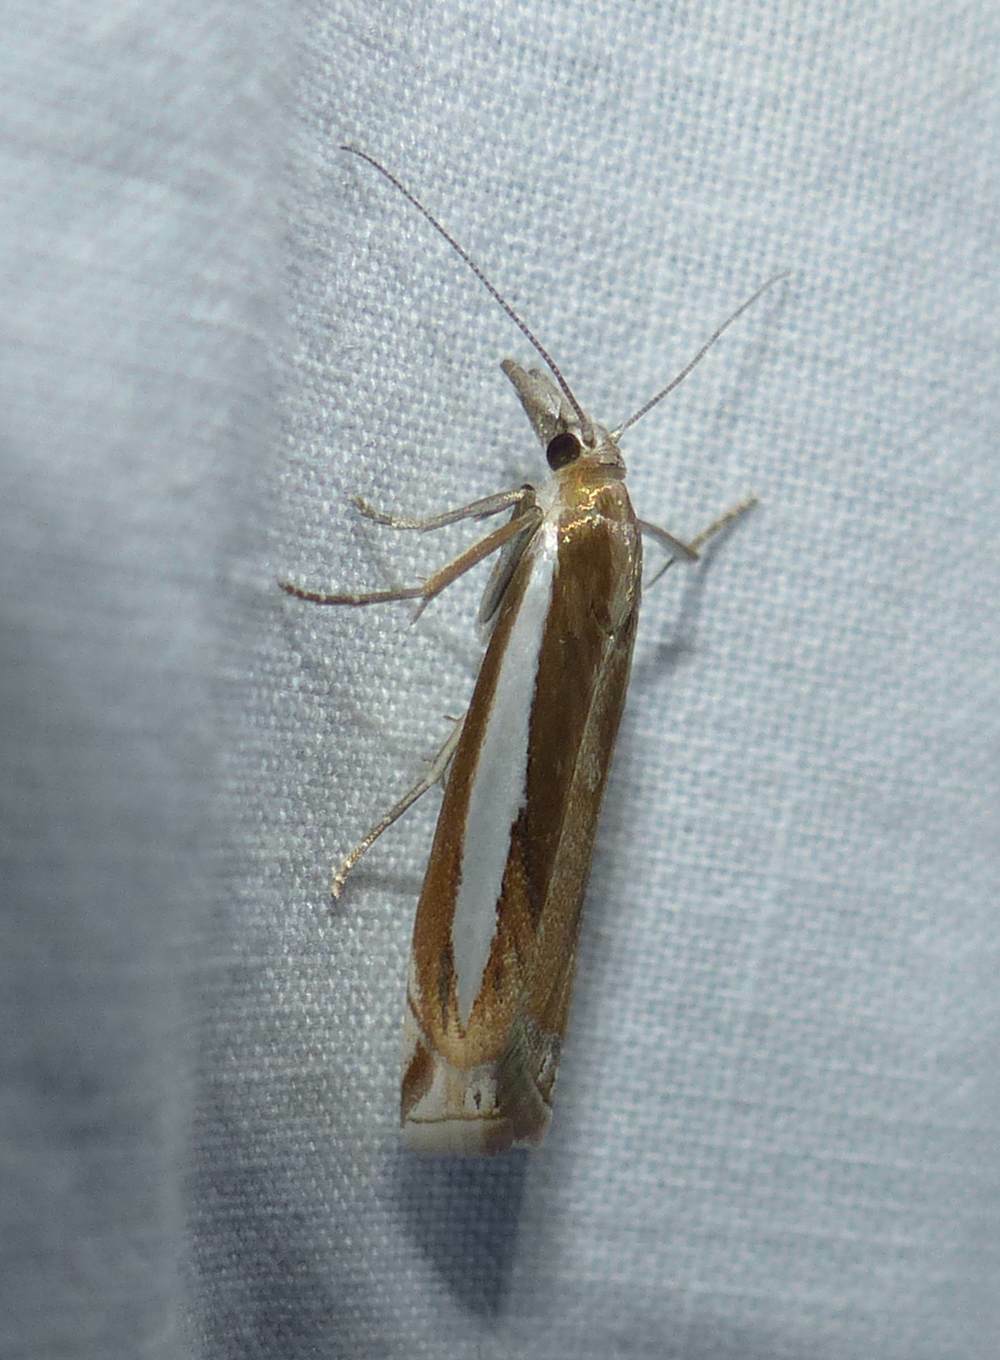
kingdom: Animalia
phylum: Arthropoda
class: Insecta
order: Lepidoptera
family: Crambidae
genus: Crambus
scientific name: Crambus praefectellus
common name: Common grass-veneer
